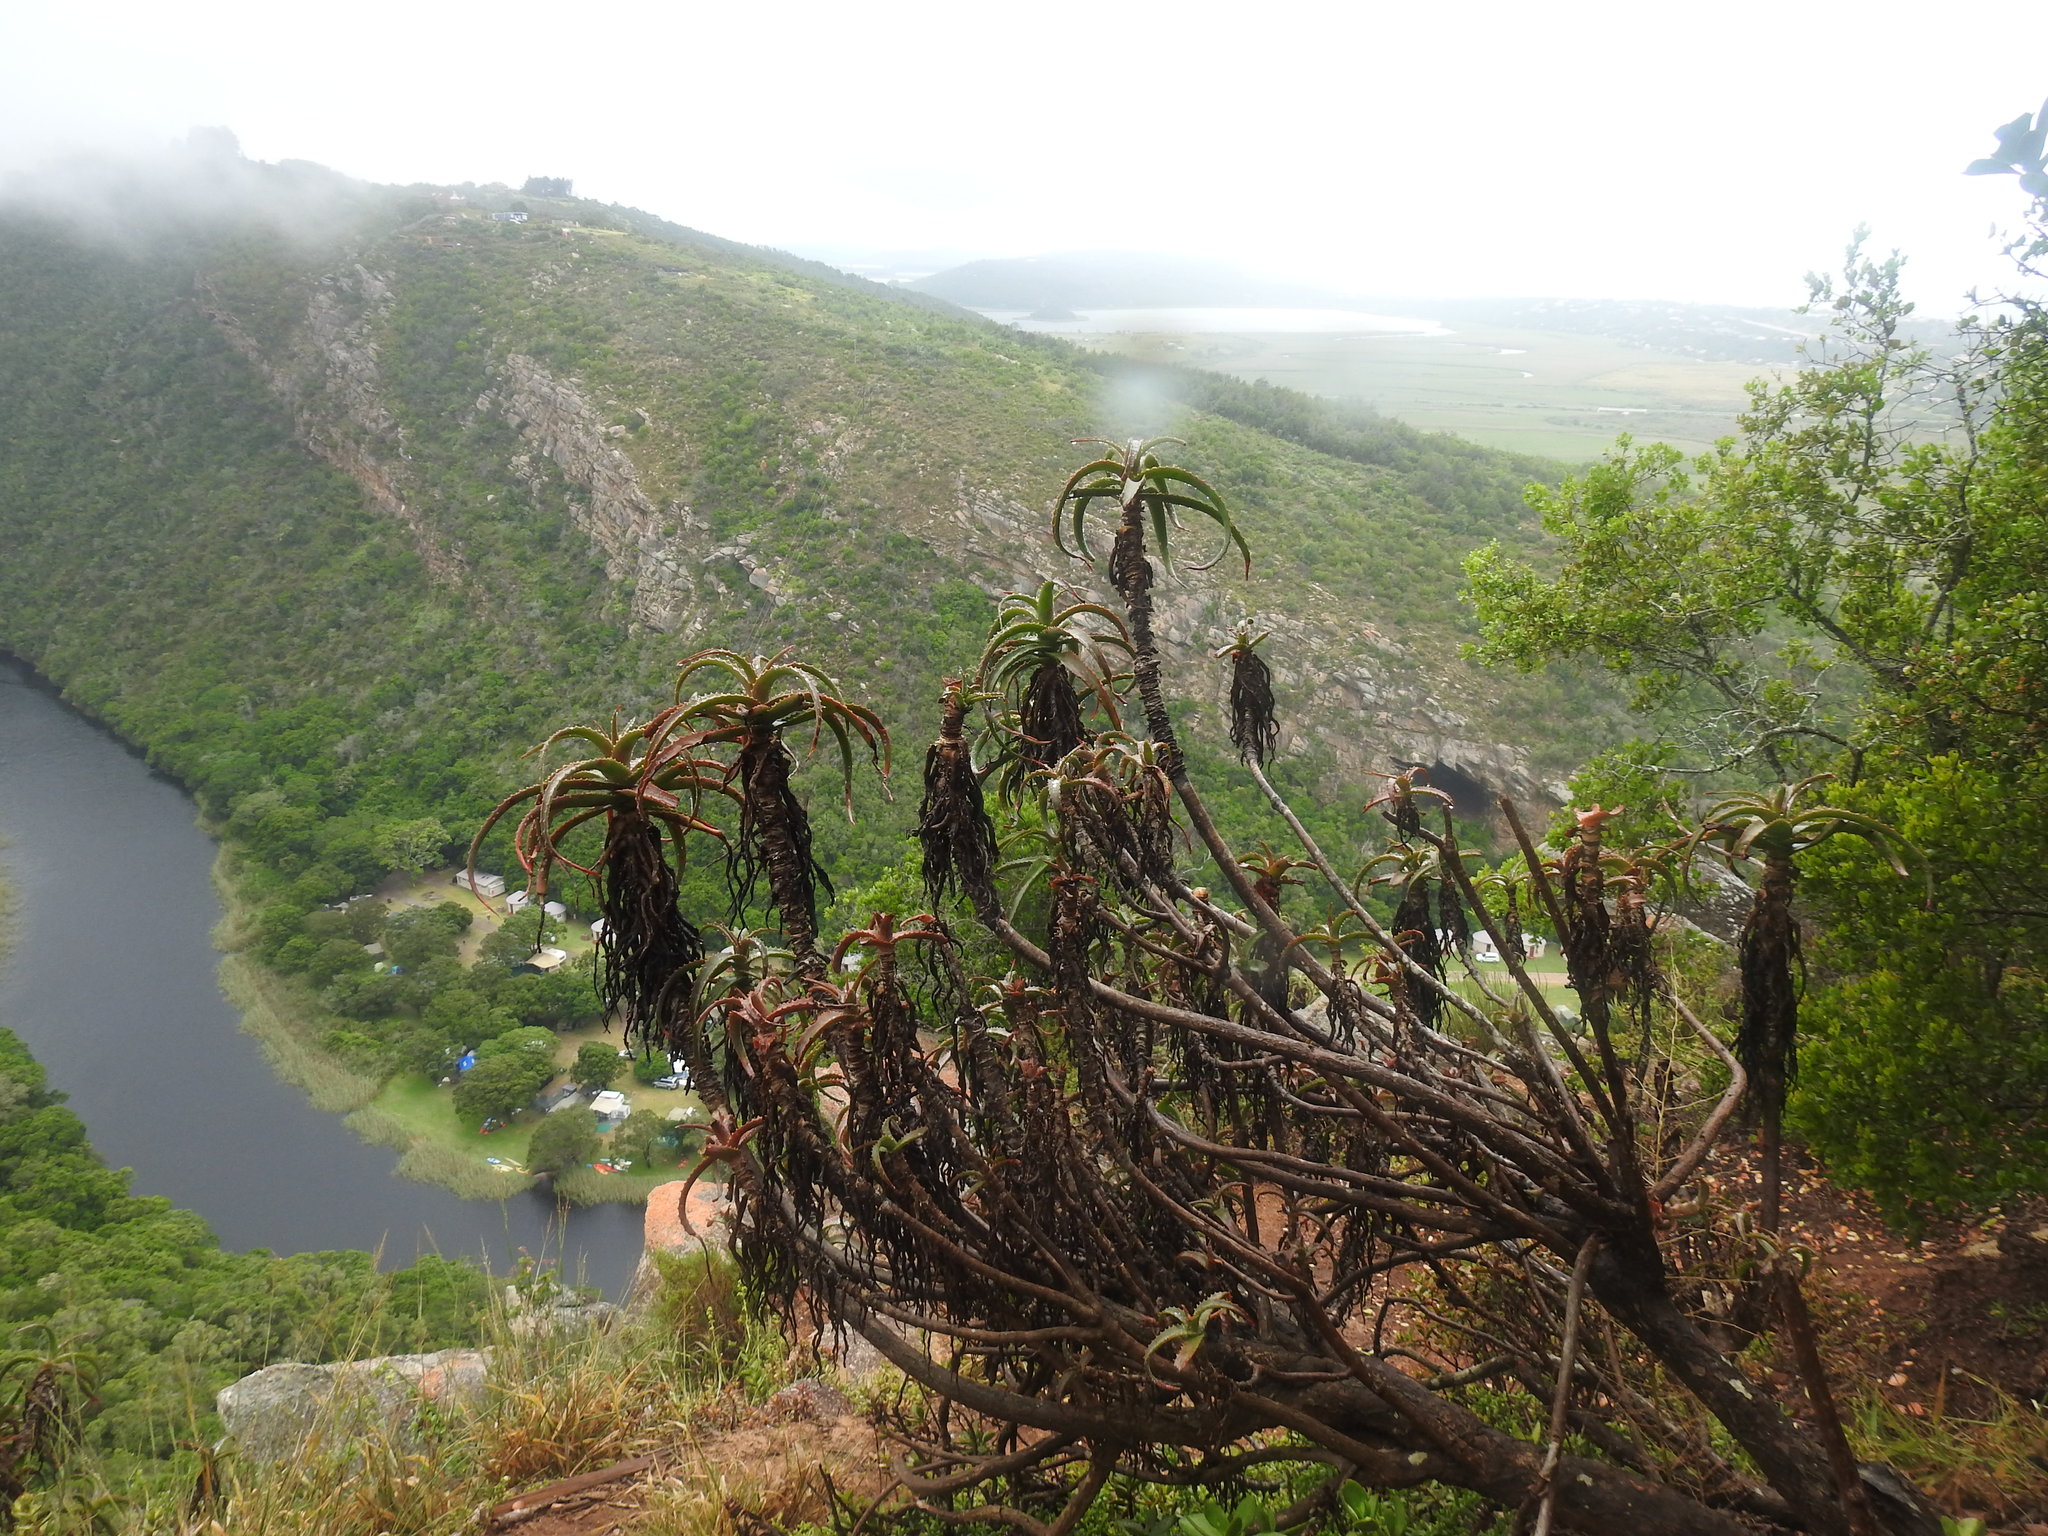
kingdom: Plantae
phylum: Tracheophyta
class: Liliopsida
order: Asparagales
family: Asphodelaceae
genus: Aloe
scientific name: Aloe arborescens
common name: Candelabra aloe
